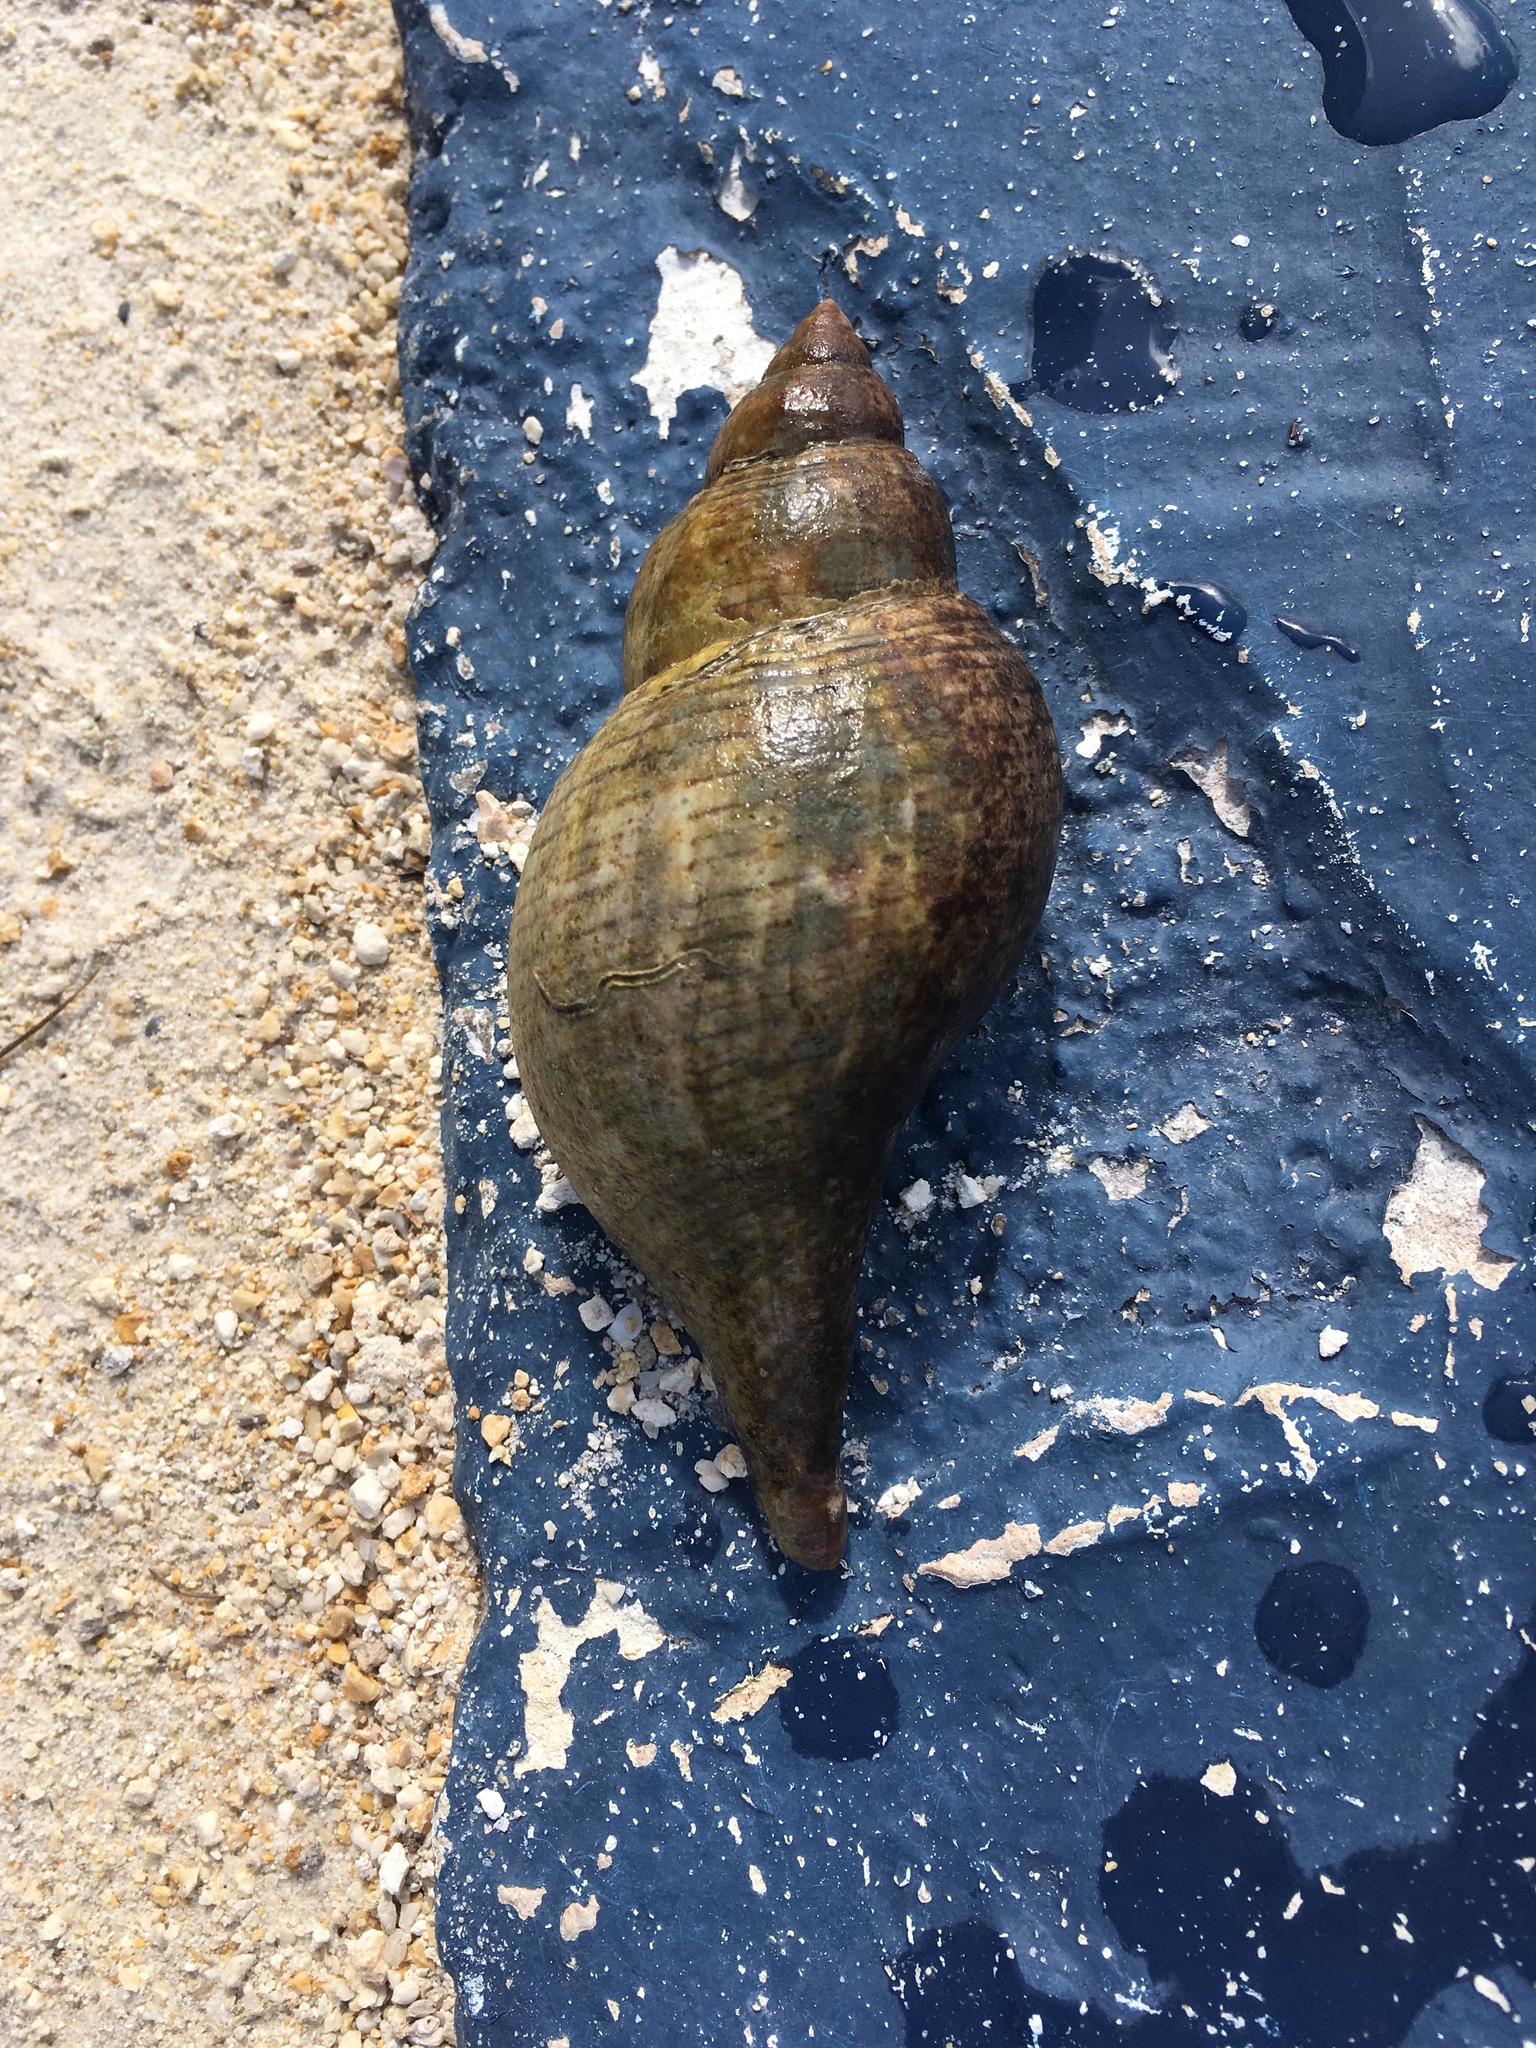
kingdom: Animalia
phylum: Mollusca
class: Gastropoda
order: Neogastropoda
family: Fasciolariidae
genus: Fasciolaria
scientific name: Fasciolaria tulipa
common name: True tulip
